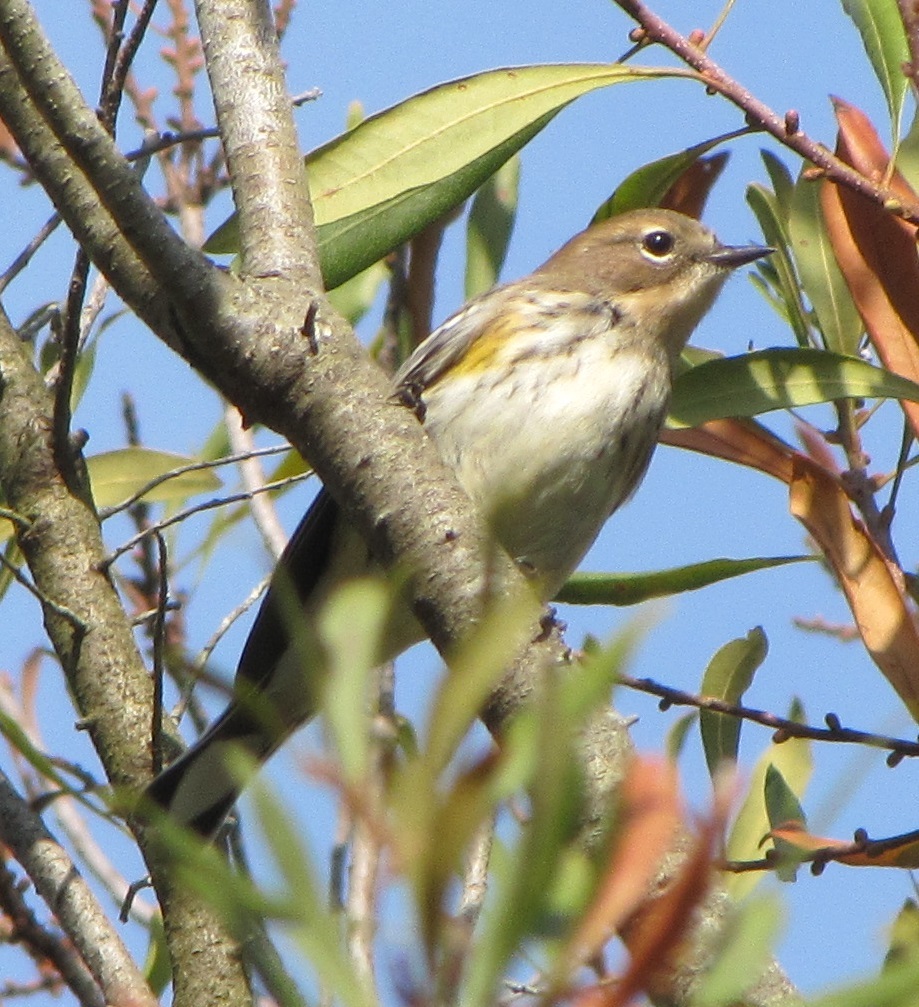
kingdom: Animalia
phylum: Chordata
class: Aves
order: Passeriformes
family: Parulidae
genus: Setophaga
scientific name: Setophaga coronata
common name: Myrtle warbler
